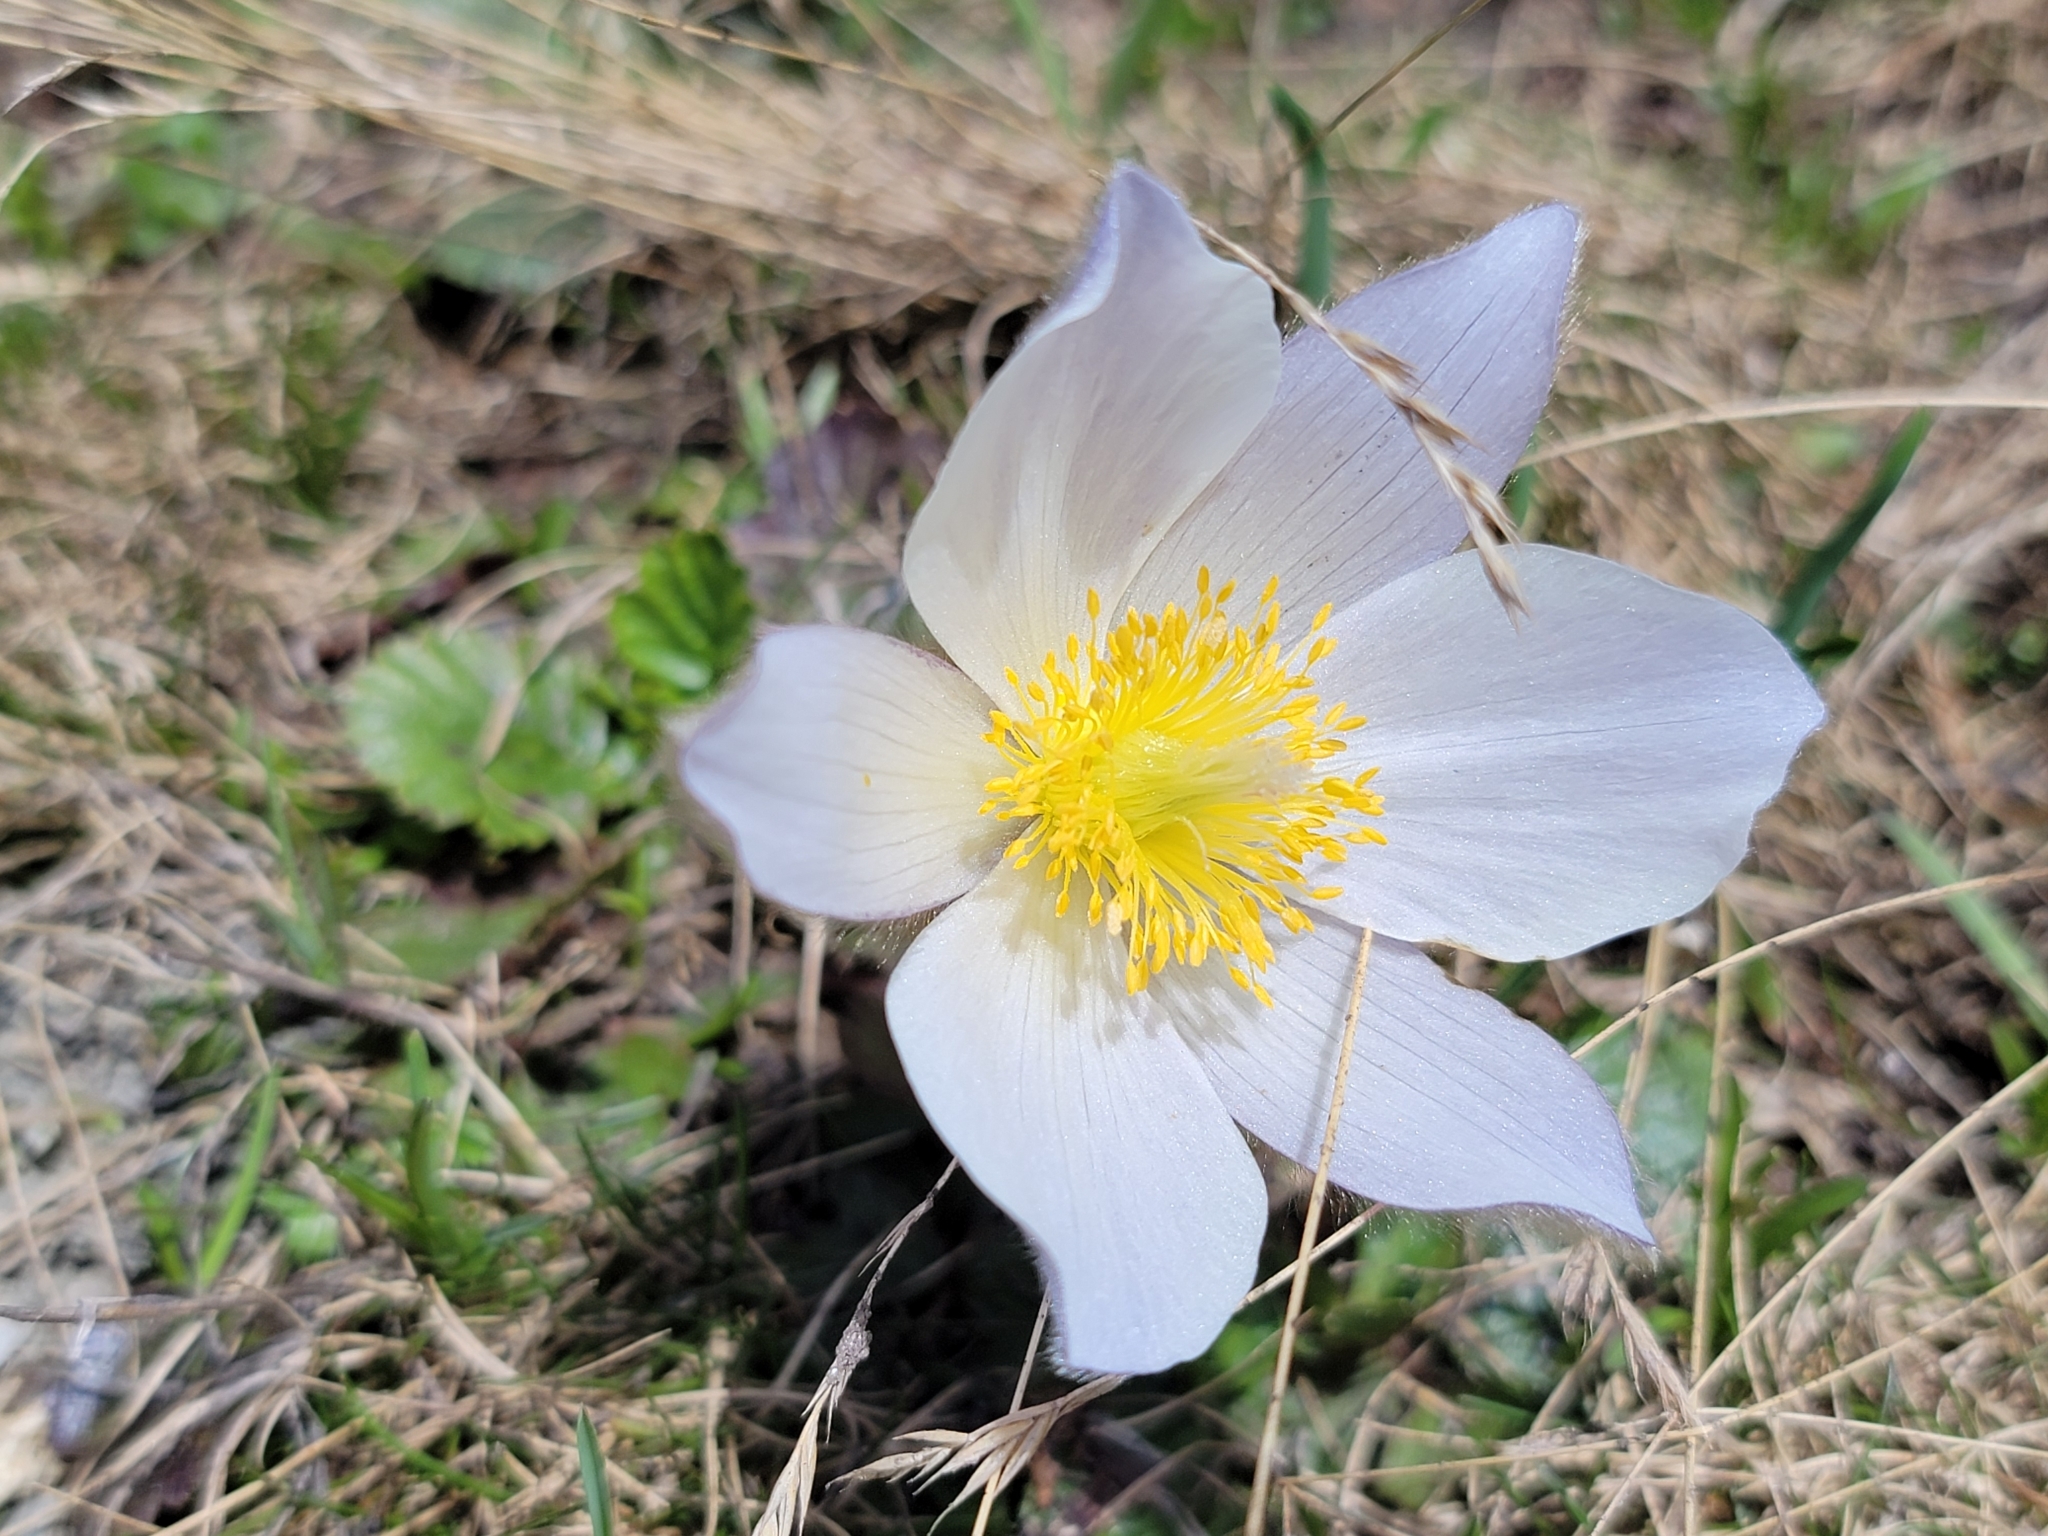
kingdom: Plantae
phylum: Tracheophyta
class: Magnoliopsida
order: Ranunculales
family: Ranunculaceae
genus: Pulsatilla
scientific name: Pulsatilla vernalis
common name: Spring pasque flower
